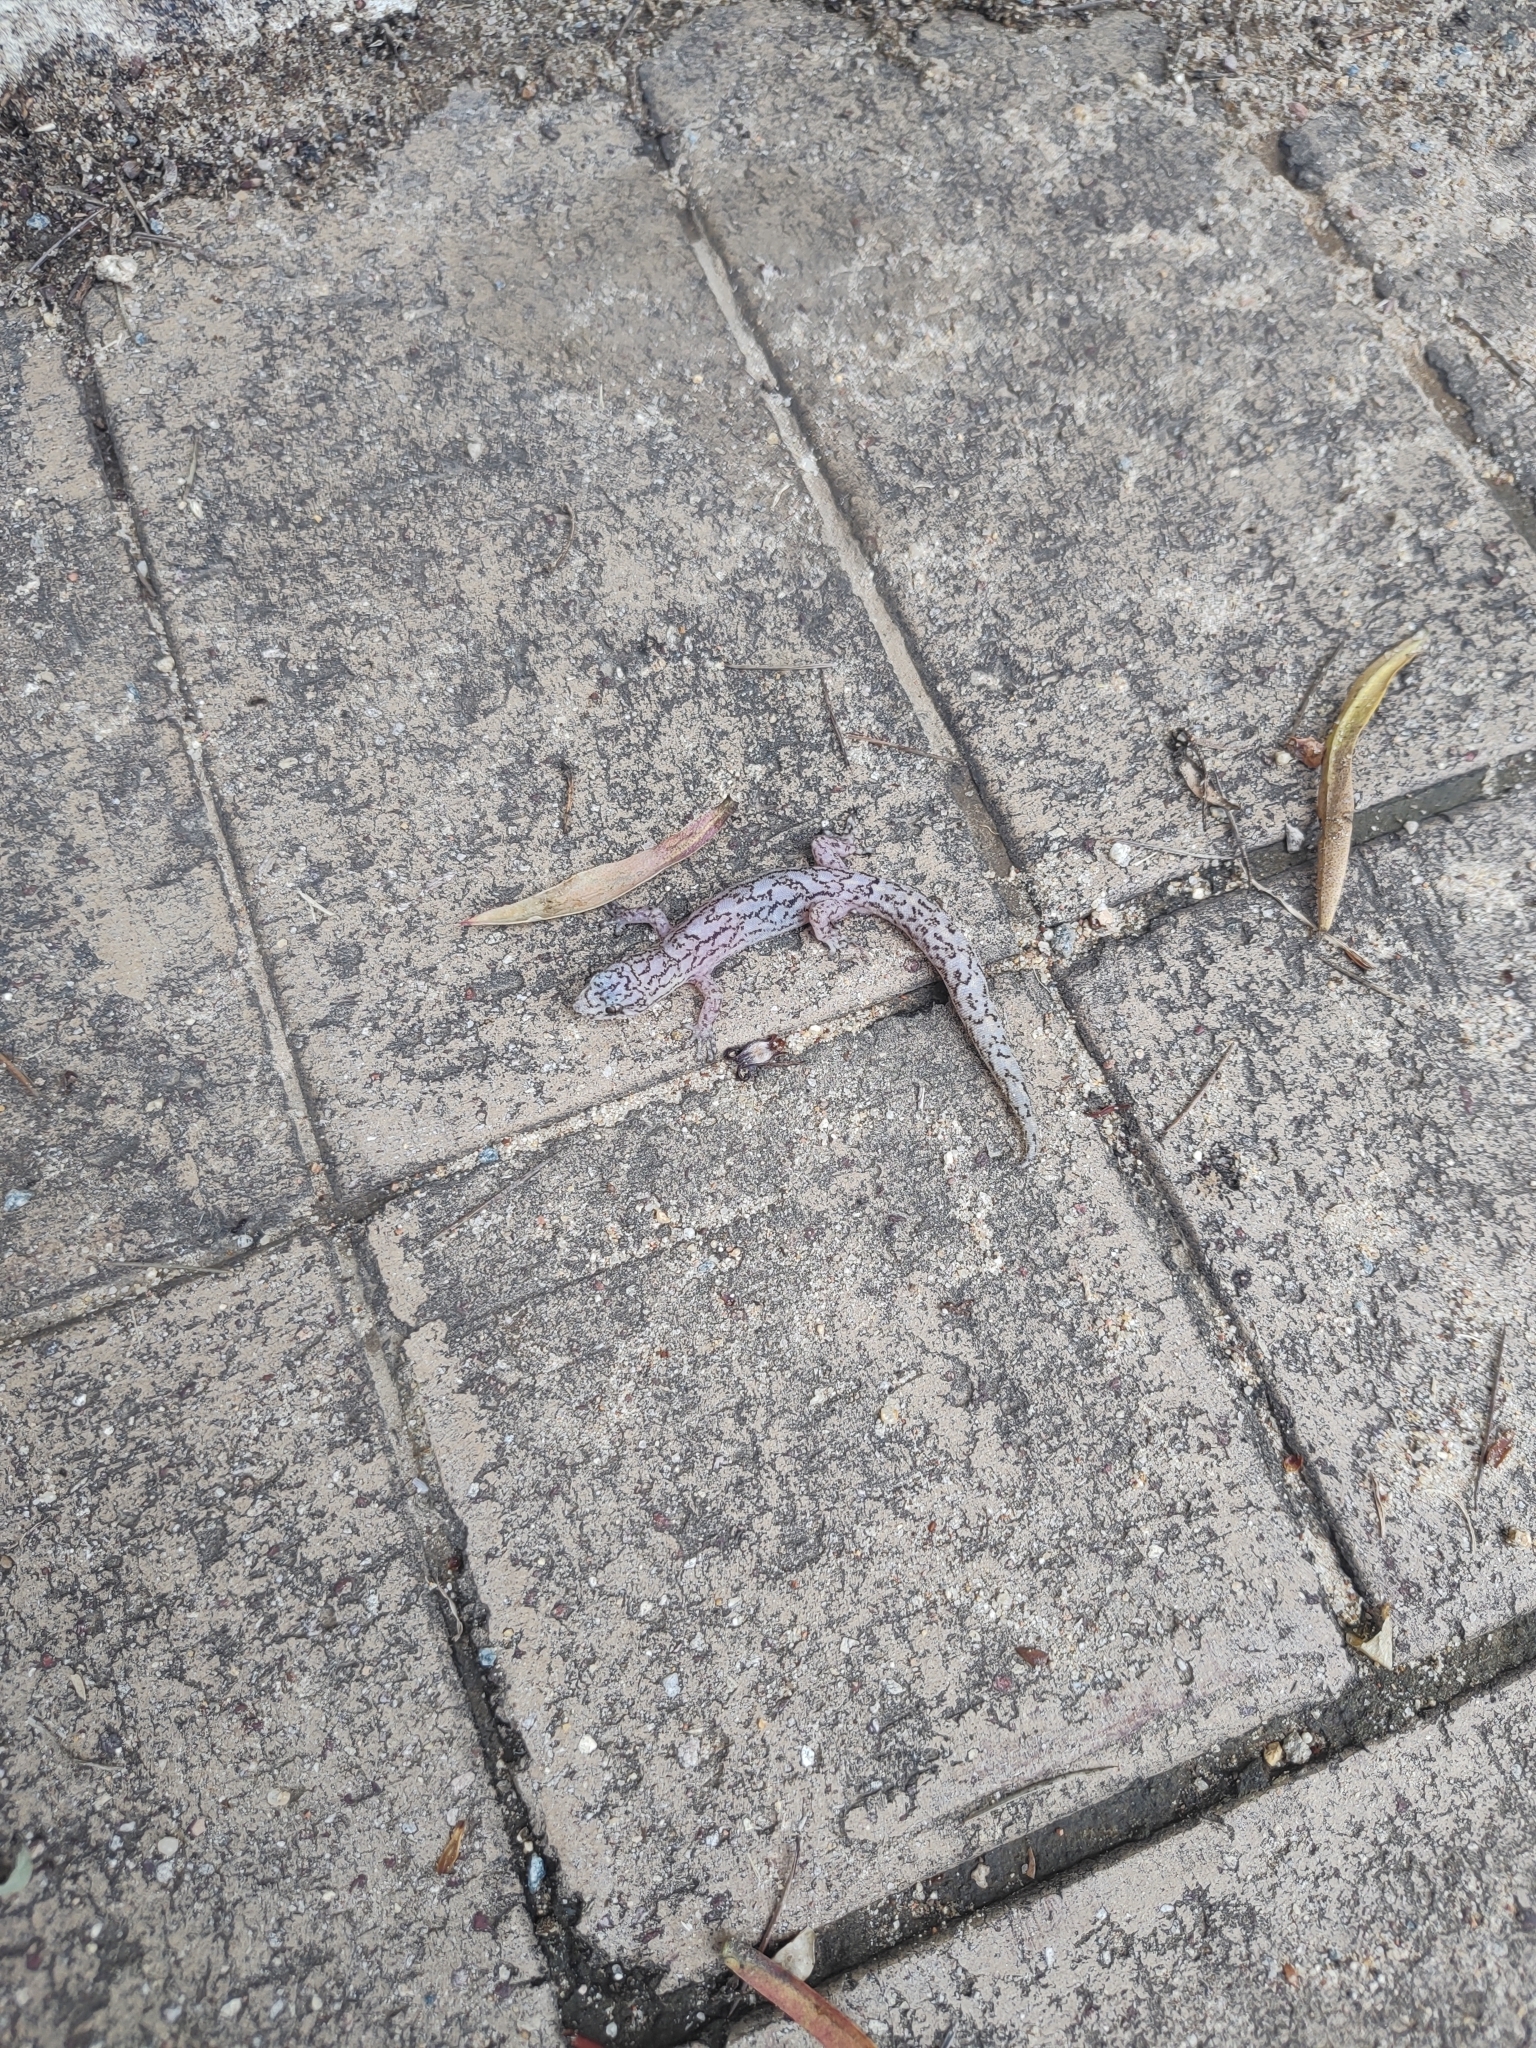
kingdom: Animalia
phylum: Chordata
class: Squamata
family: Gekkonidae
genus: Christinus
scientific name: Christinus marmoratus
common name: Marbled gecko
